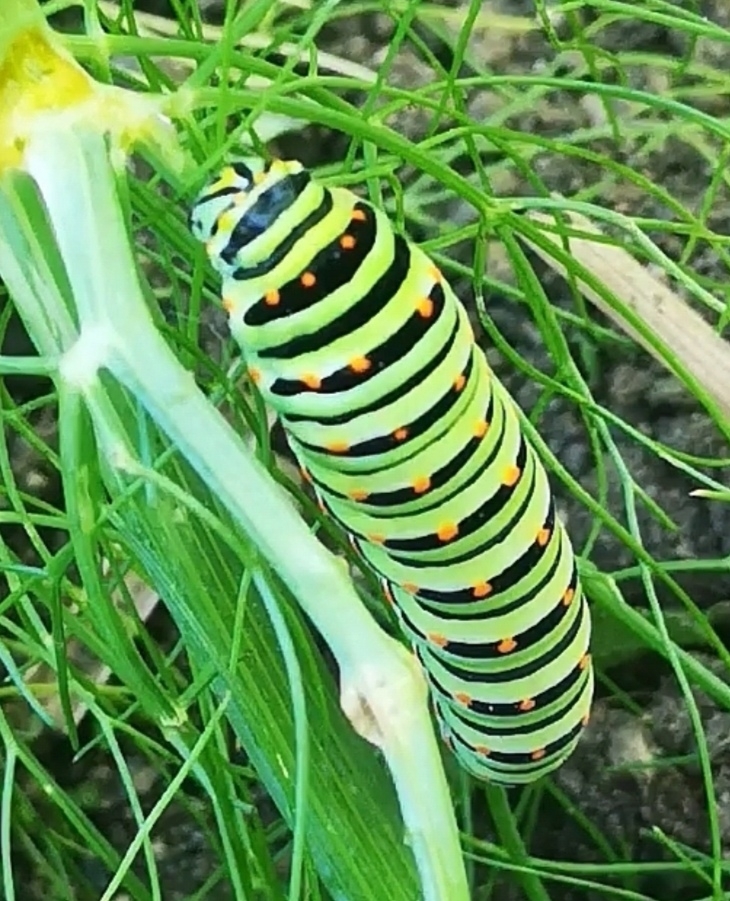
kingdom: Animalia
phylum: Arthropoda
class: Insecta
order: Lepidoptera
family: Papilionidae
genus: Papilio
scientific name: Papilio machaon
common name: Swallowtail
